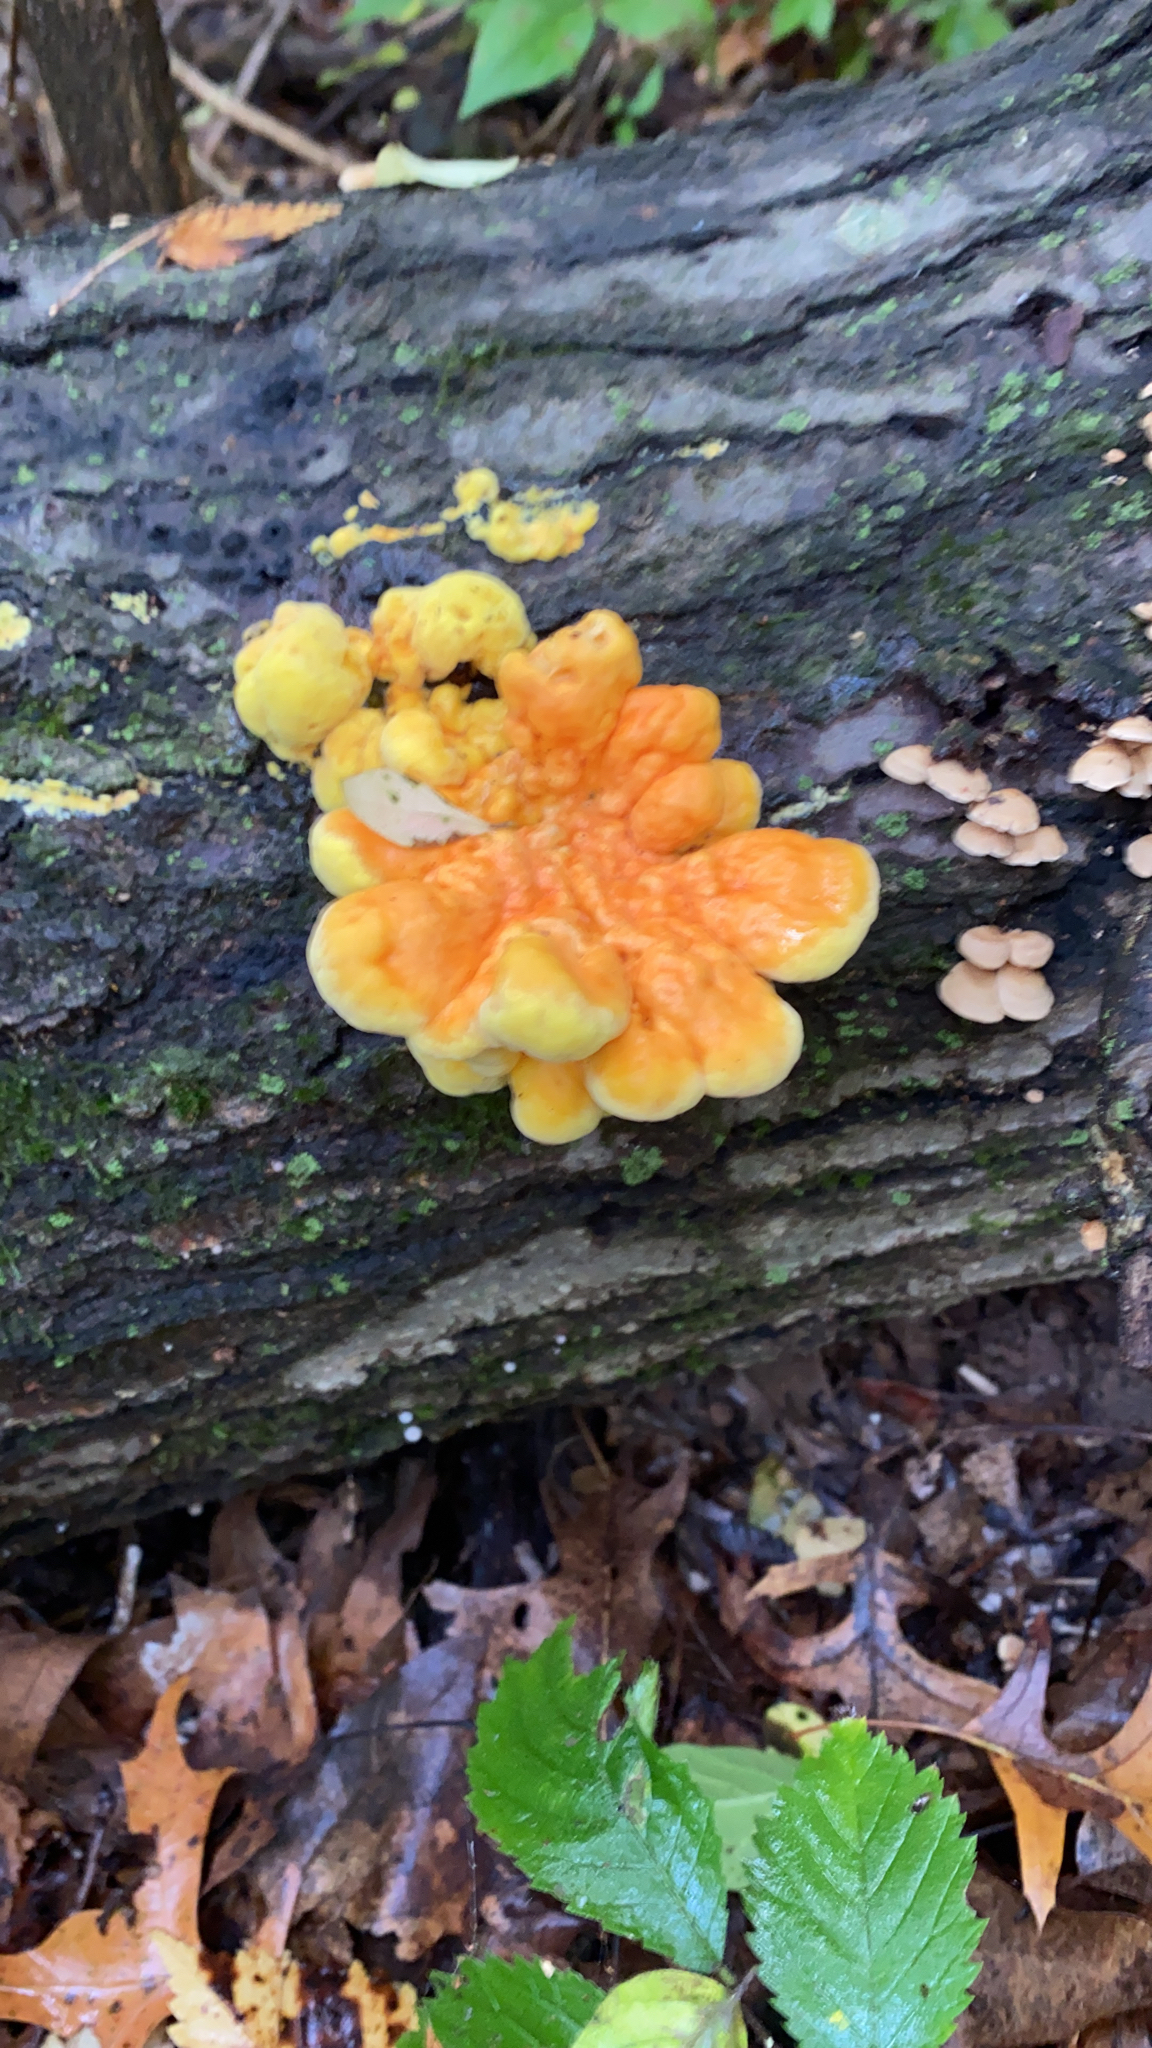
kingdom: Fungi
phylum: Basidiomycota
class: Agaricomycetes
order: Polyporales
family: Laetiporaceae
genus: Laetiporus
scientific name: Laetiporus sulphureus
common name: Chicken of the woods
